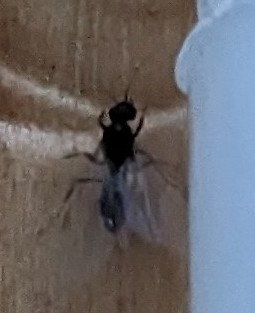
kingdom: Animalia
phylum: Arthropoda
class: Insecta
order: Hymenoptera
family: Formicidae
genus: Lasius
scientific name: Lasius
